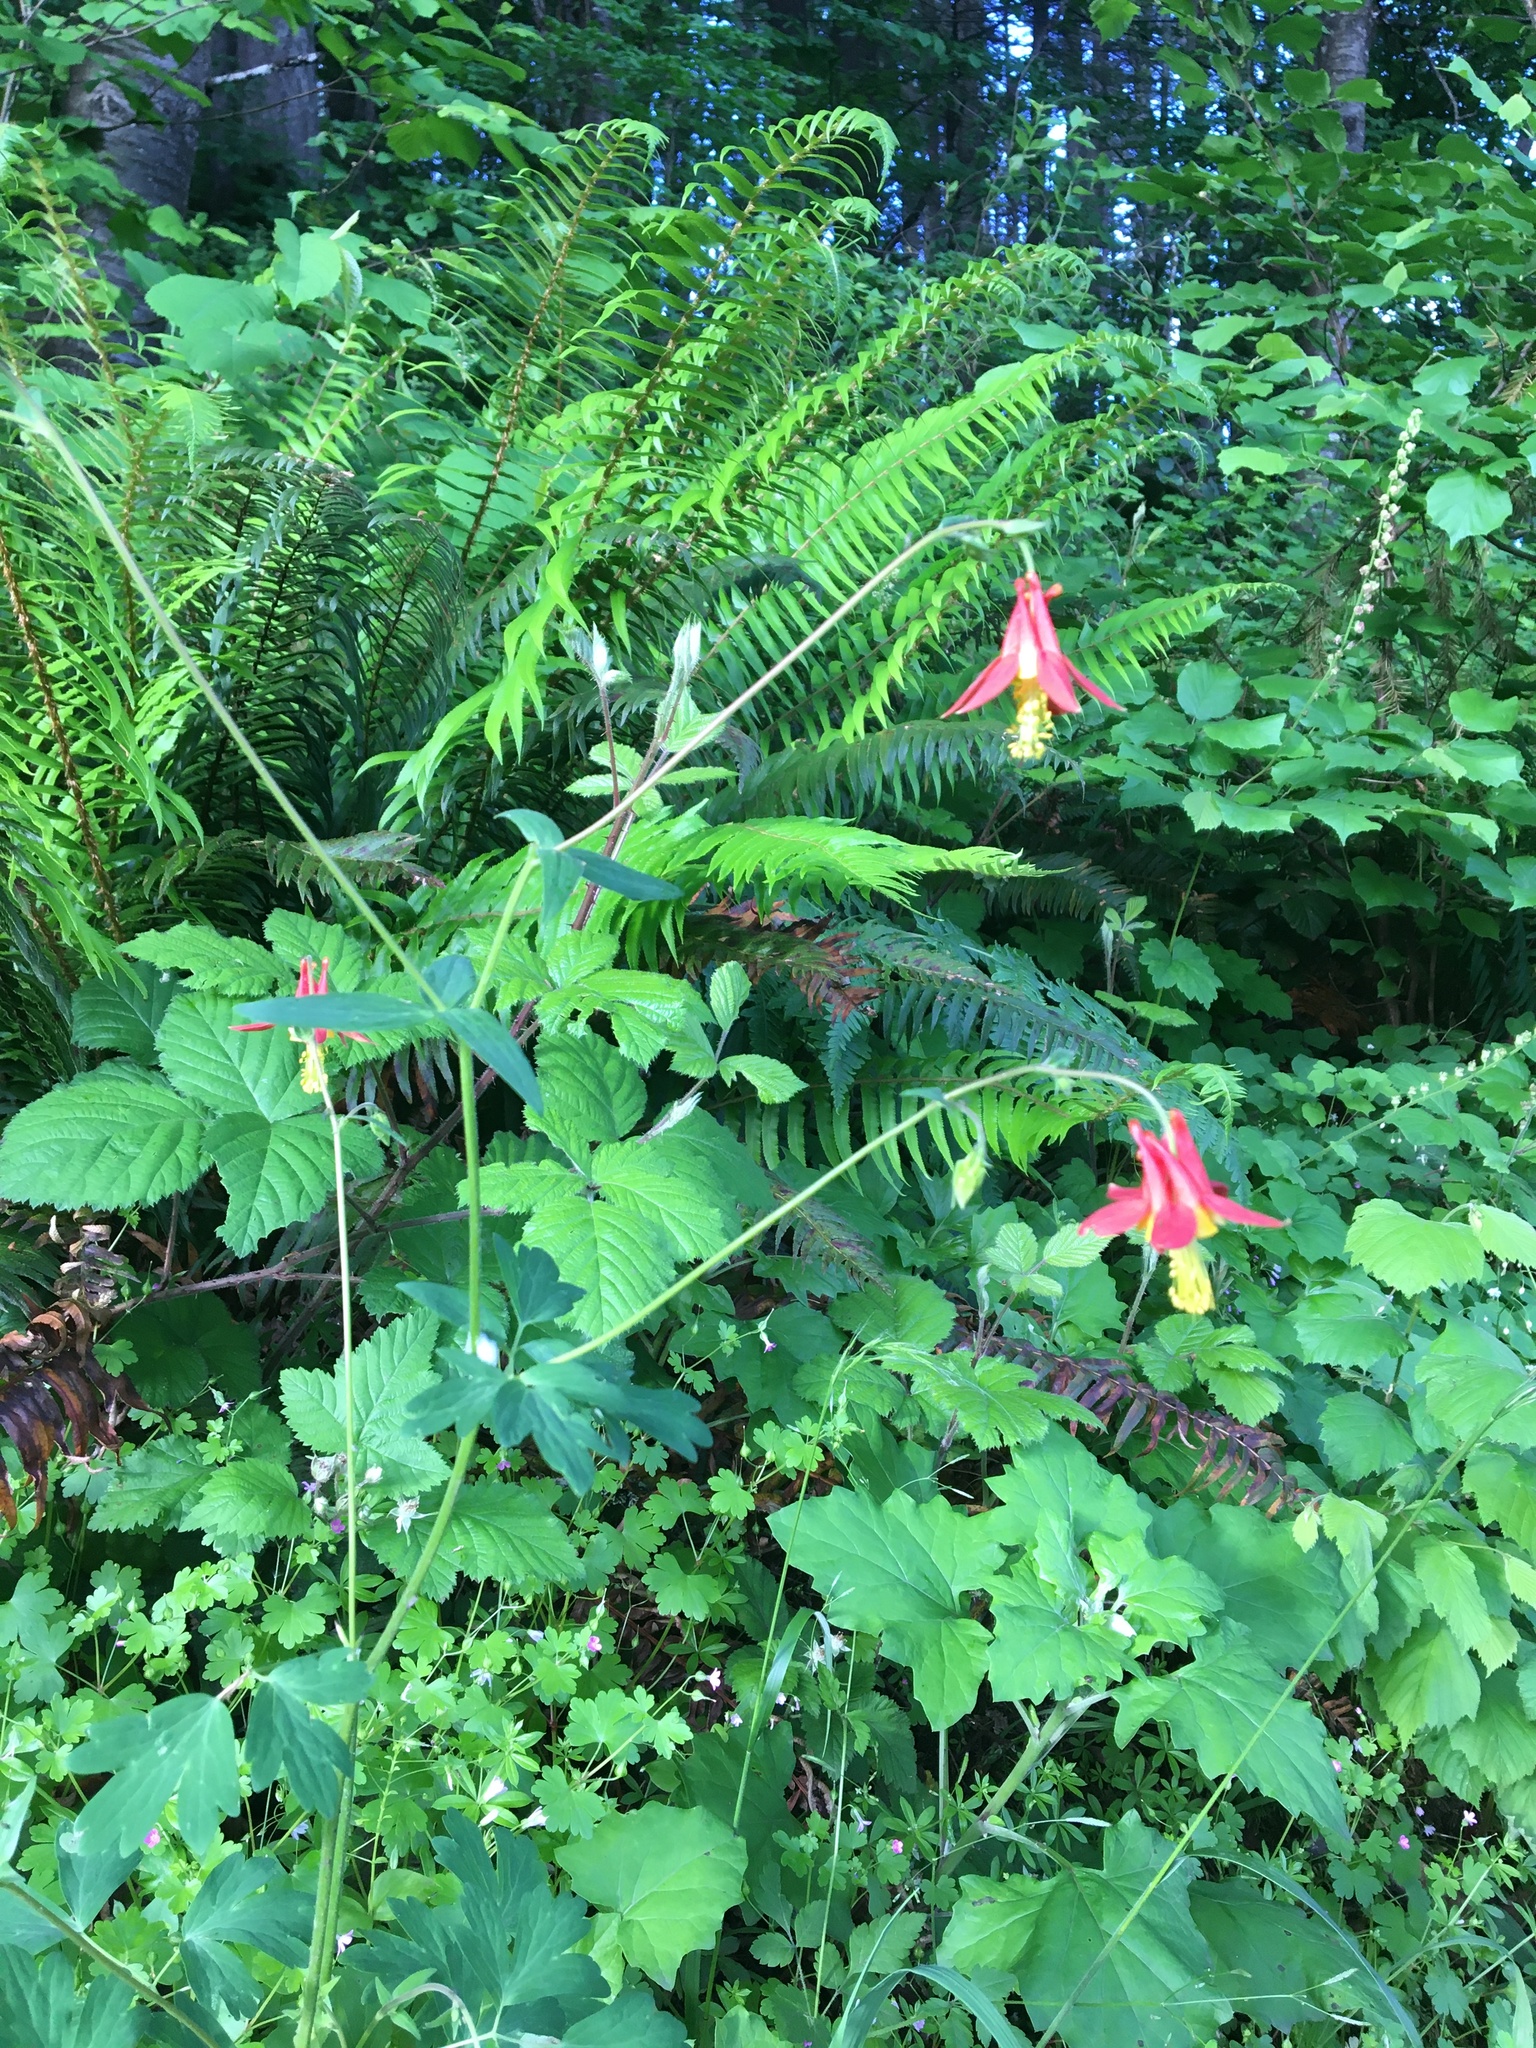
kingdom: Plantae
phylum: Tracheophyta
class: Magnoliopsida
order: Ranunculales
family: Ranunculaceae
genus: Aquilegia
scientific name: Aquilegia formosa
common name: Sitka columbine
